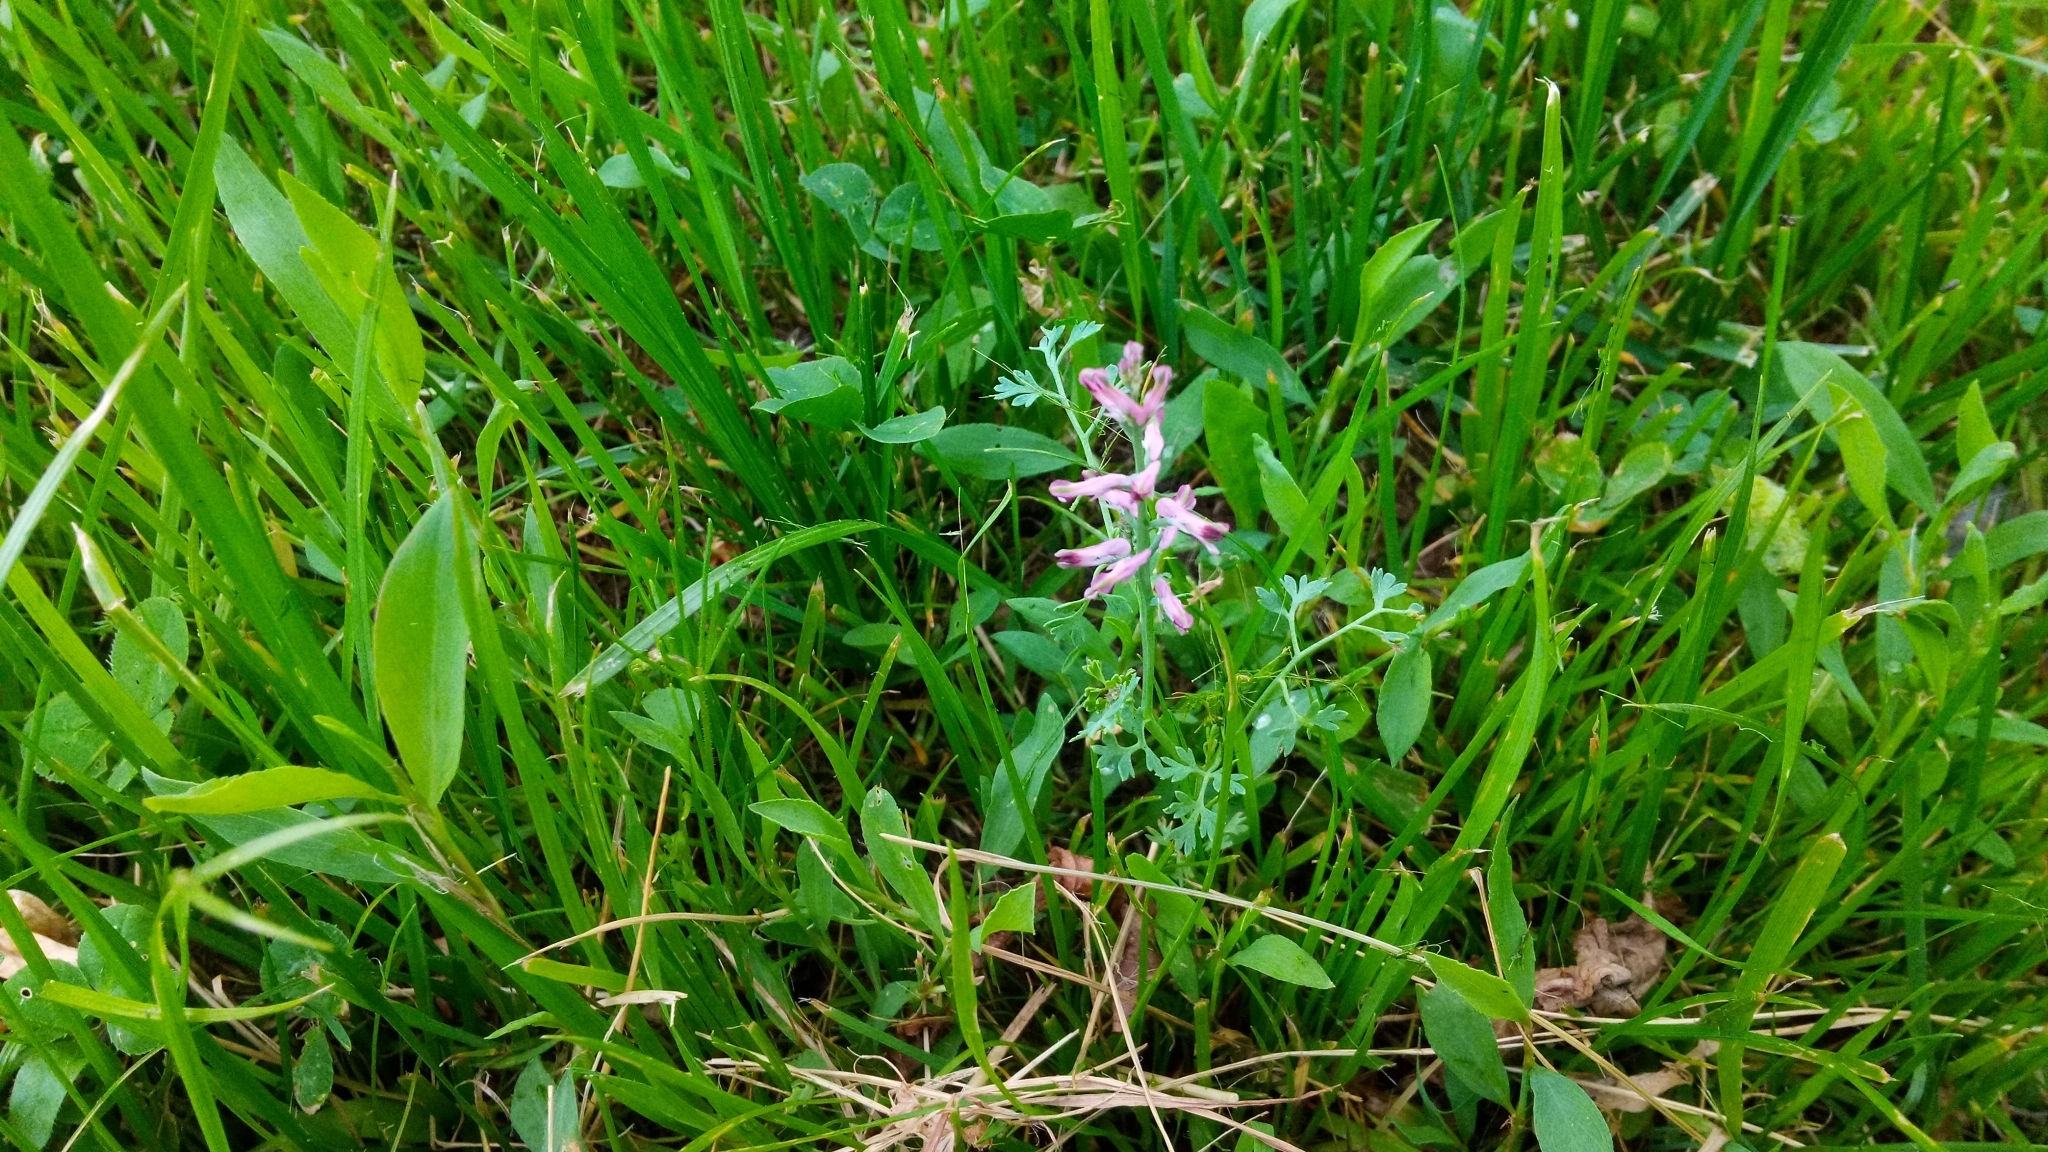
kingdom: Plantae
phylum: Tracheophyta
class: Magnoliopsida
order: Ranunculales
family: Papaveraceae
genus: Fumaria
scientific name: Fumaria officinalis
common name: Common fumitory
